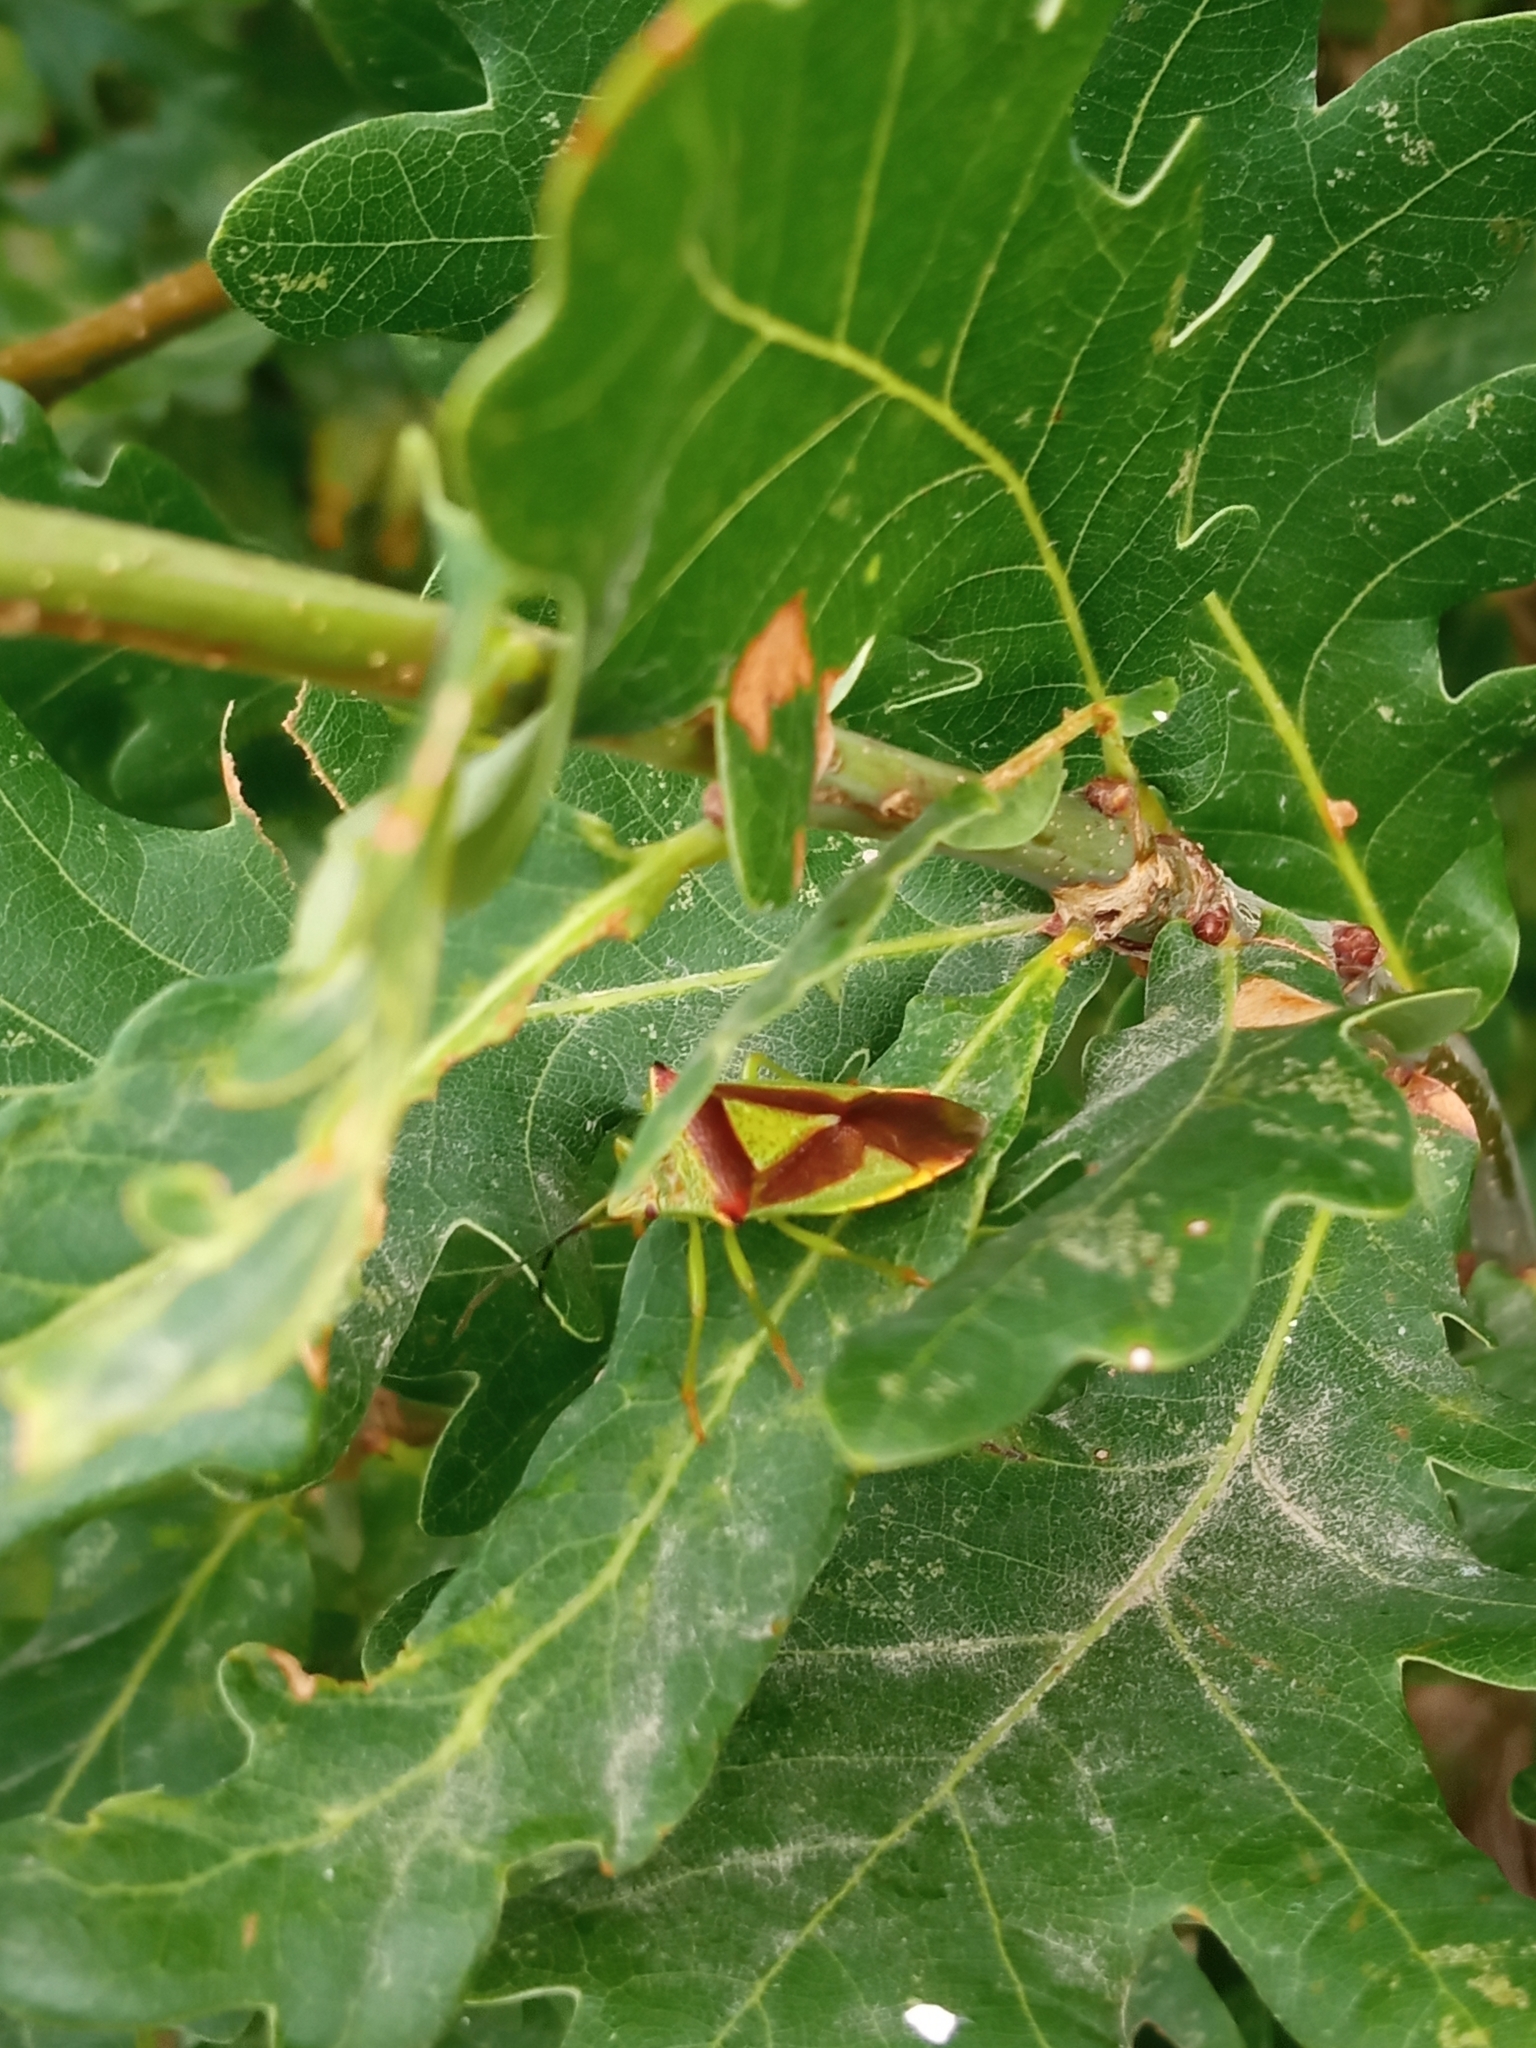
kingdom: Animalia
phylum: Arthropoda
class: Insecta
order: Hemiptera
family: Acanthosomatidae
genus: Acanthosoma
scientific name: Acanthosoma haemorrhoidale
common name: Hawthorn shieldbug
